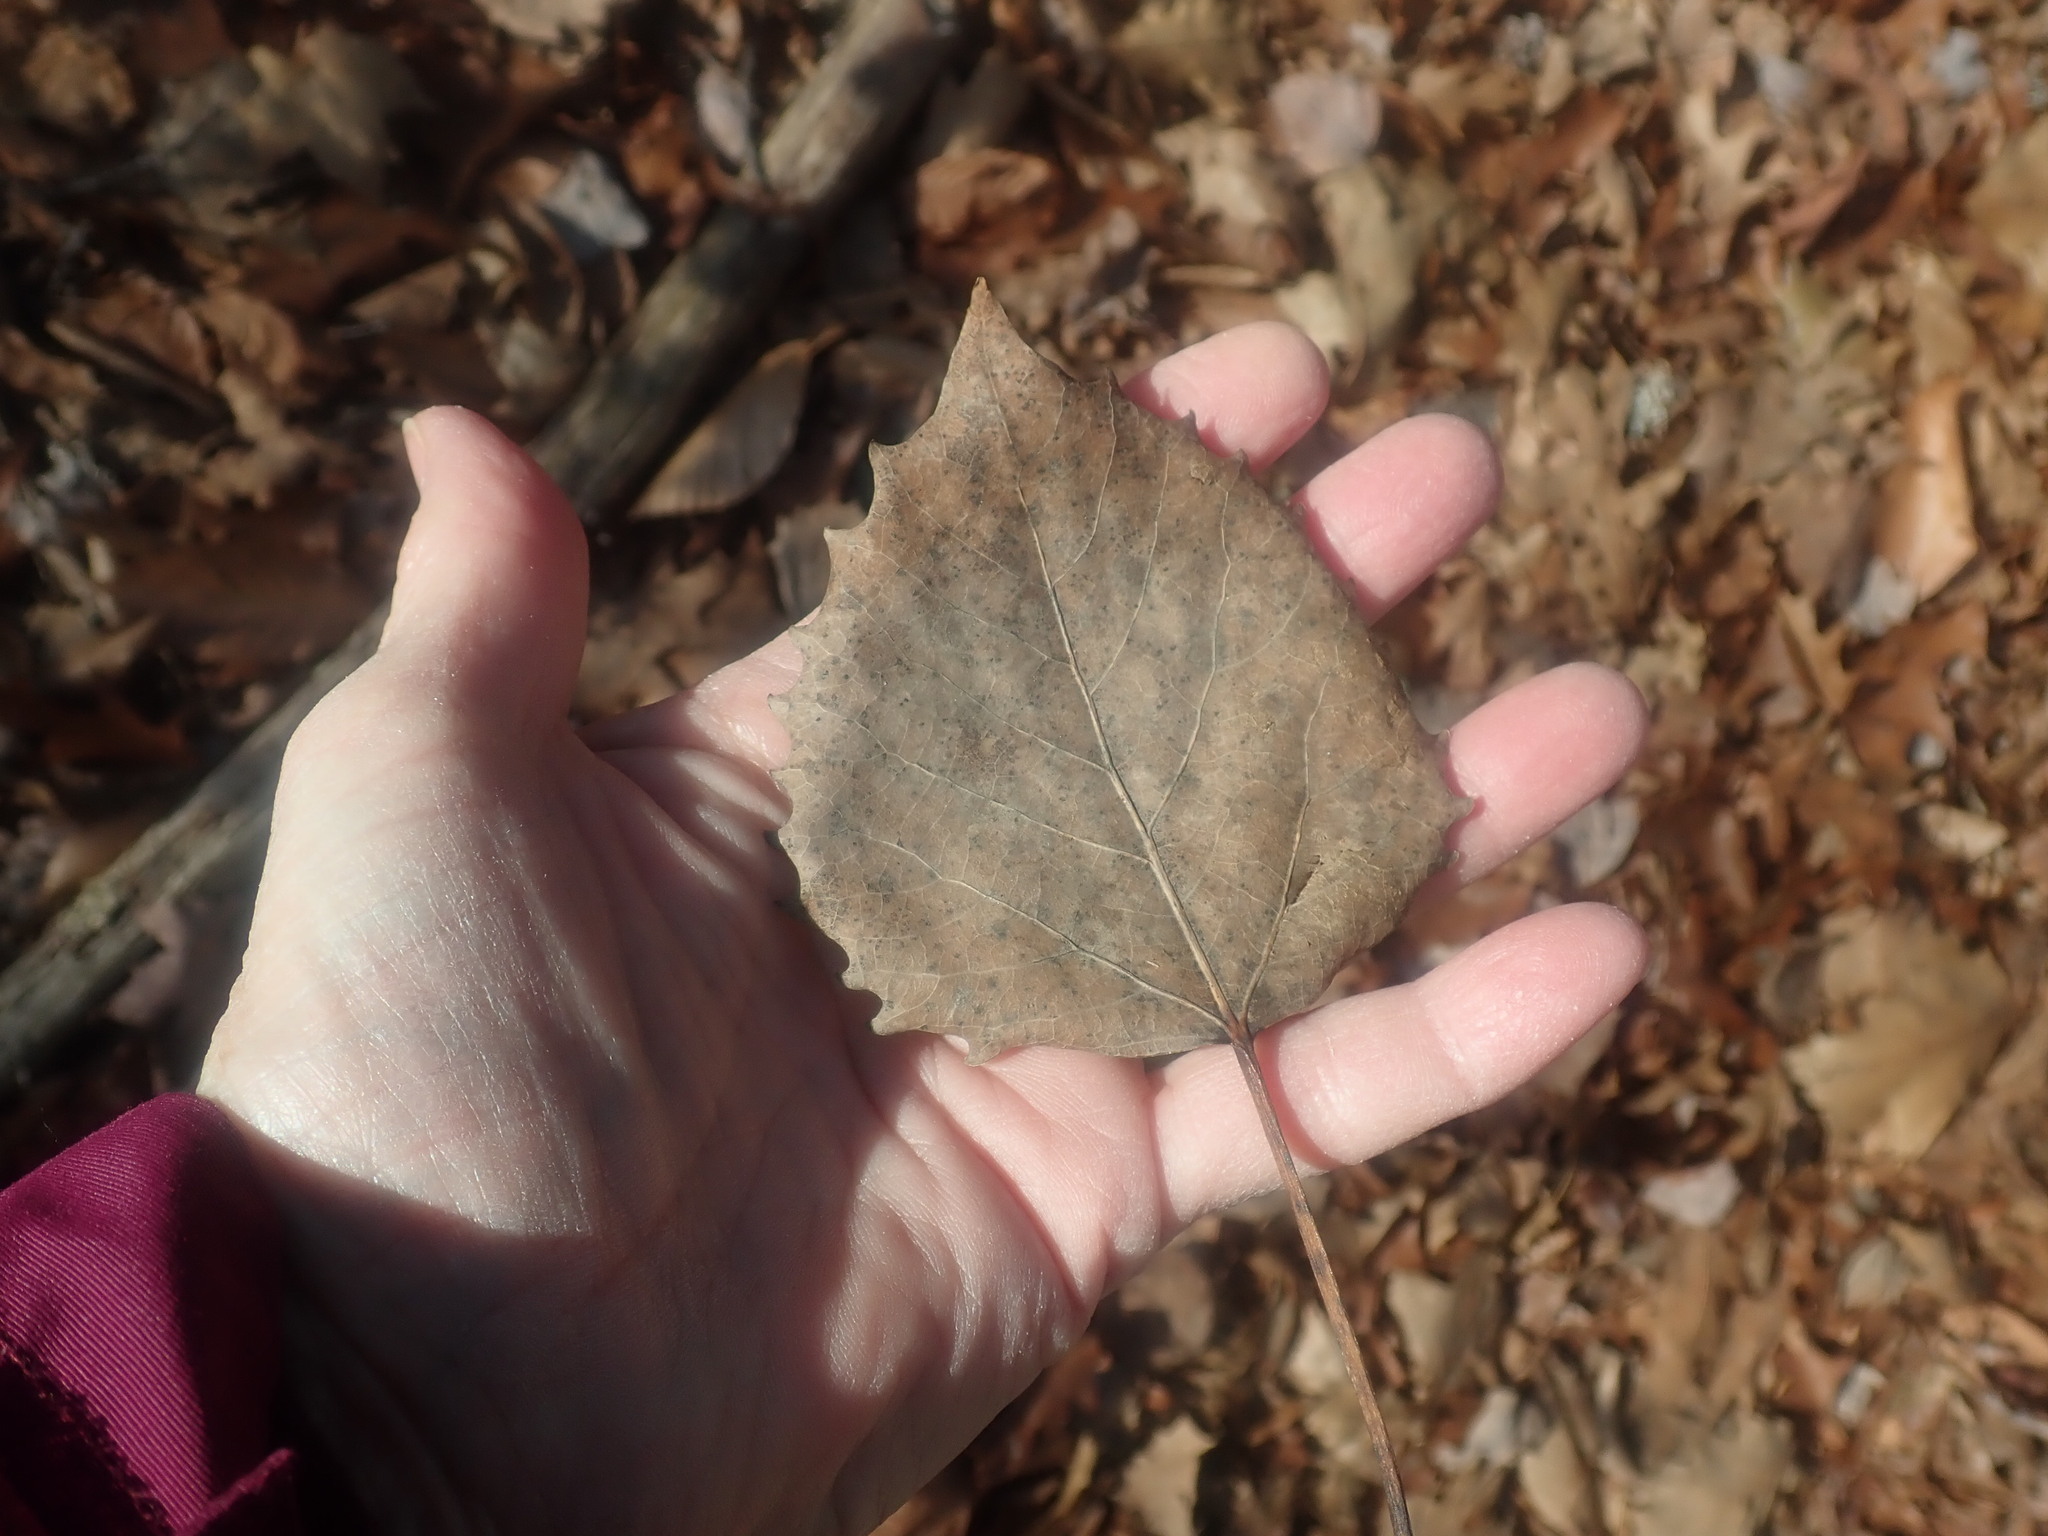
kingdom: Plantae
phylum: Tracheophyta
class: Magnoliopsida
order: Malpighiales
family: Salicaceae
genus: Populus
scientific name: Populus grandidentata
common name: Bigtooth aspen
